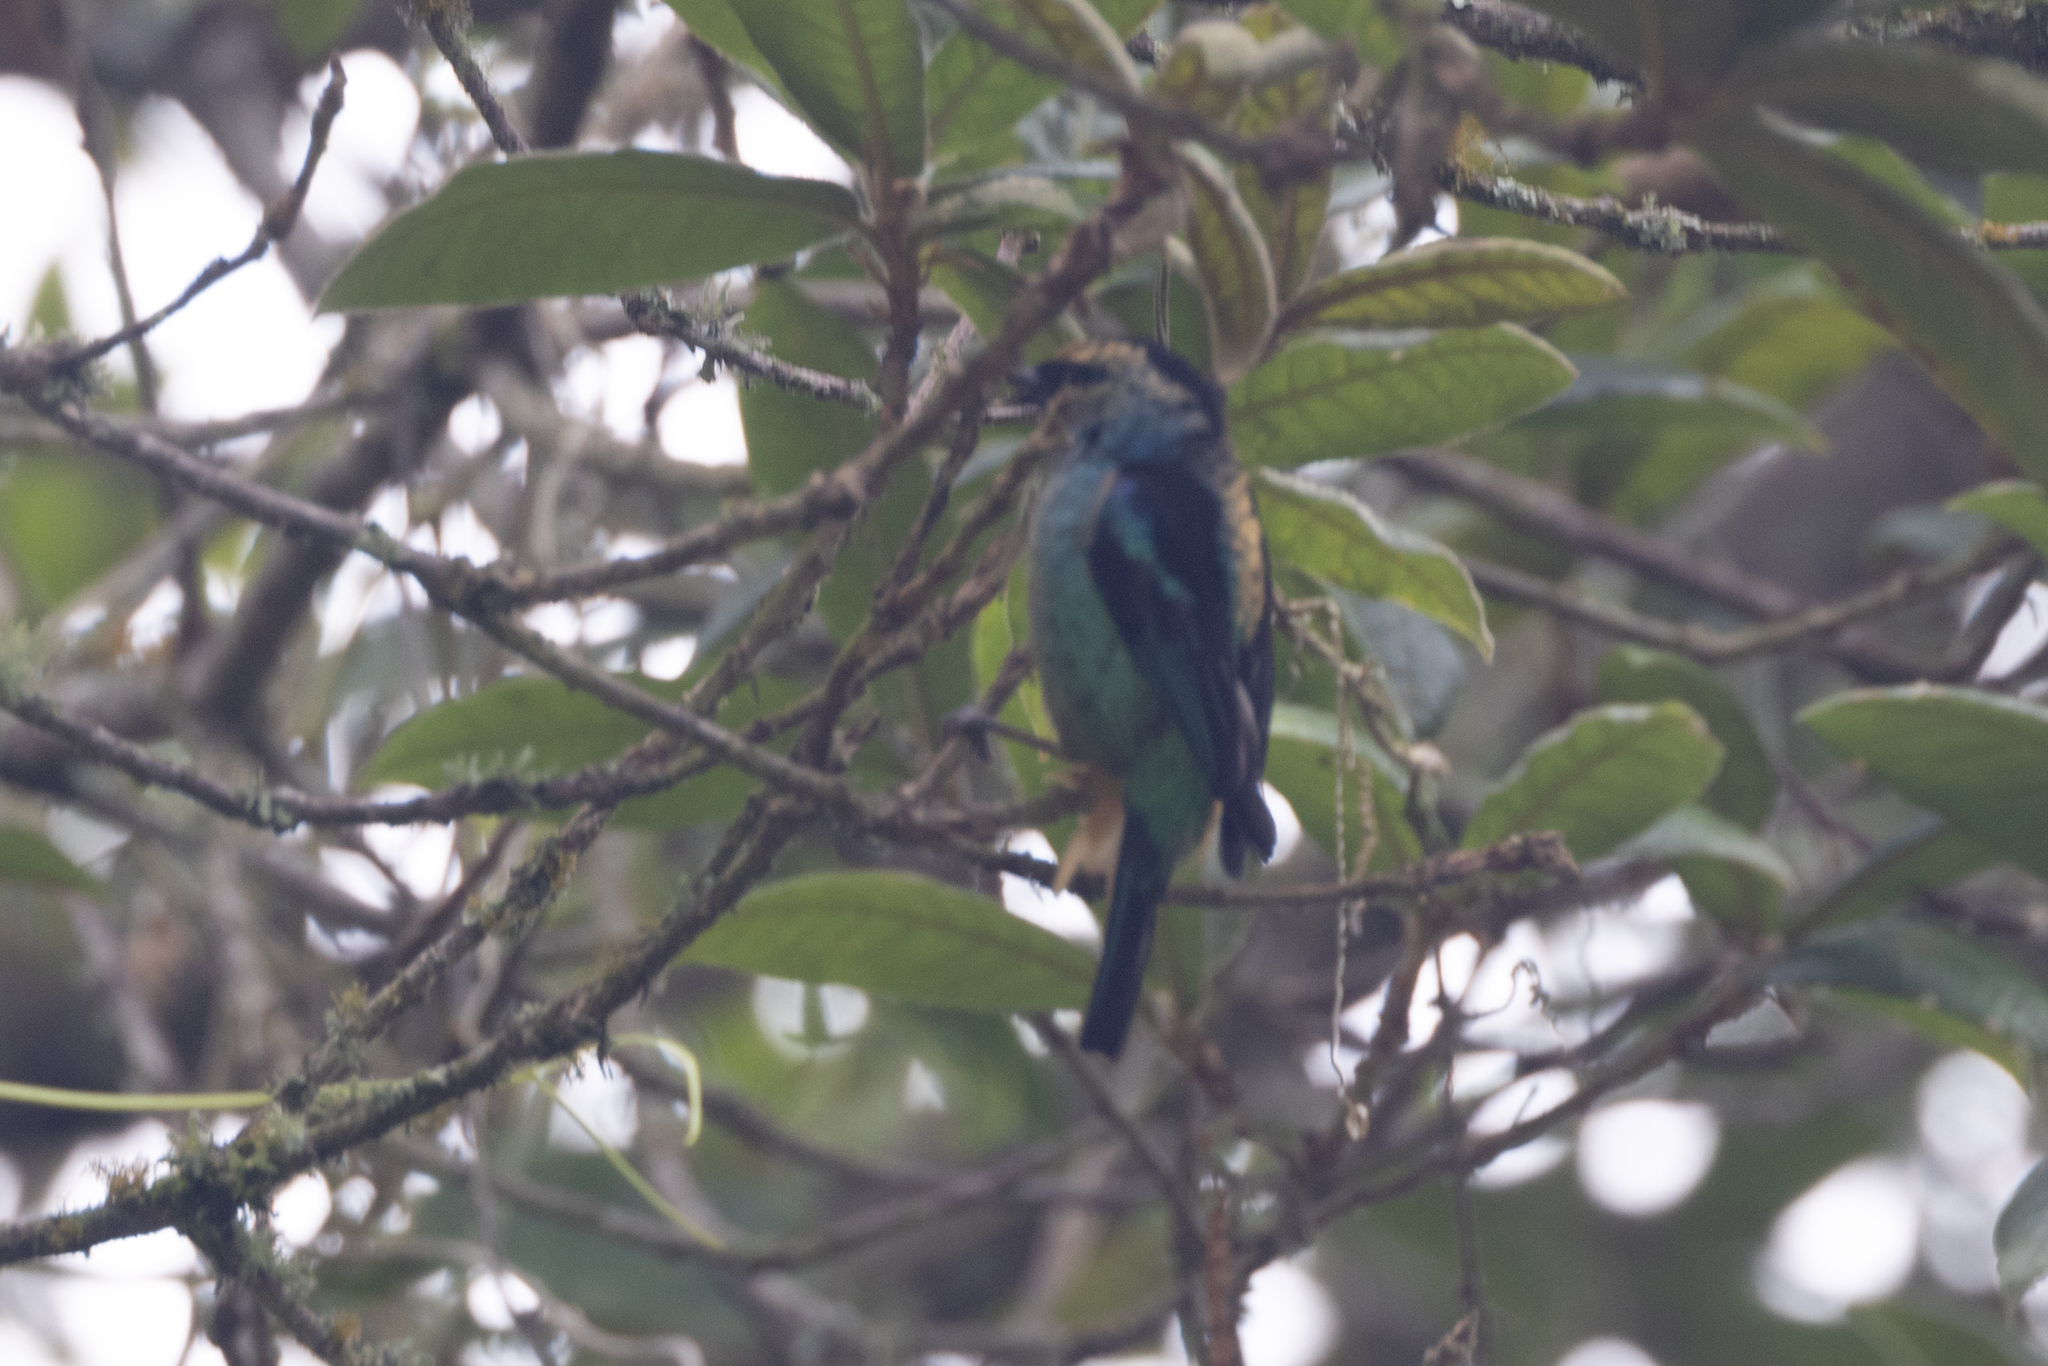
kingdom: Animalia
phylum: Chordata
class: Aves
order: Passeriformes
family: Thraupidae
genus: Tangara
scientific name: Tangara labradorides
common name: Metallic-green tanager
